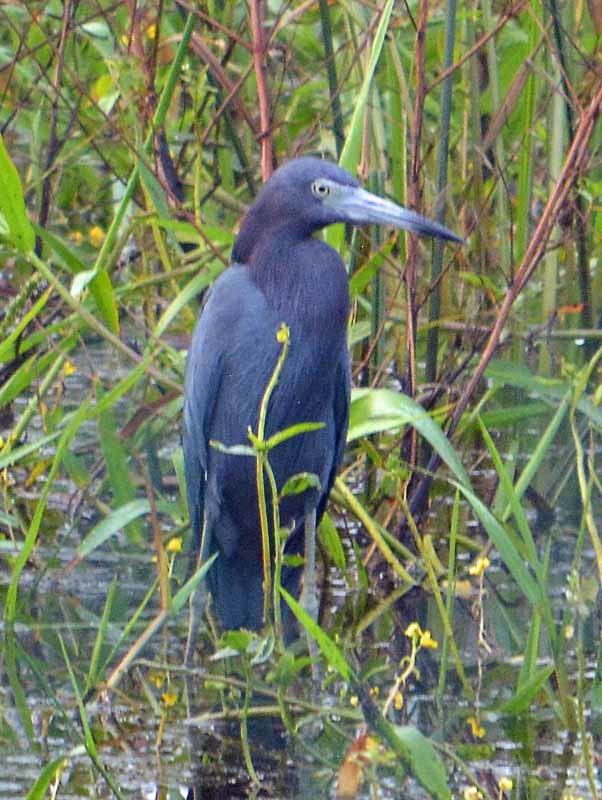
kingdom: Animalia
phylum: Chordata
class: Aves
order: Pelecaniformes
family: Ardeidae
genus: Egretta
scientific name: Egretta caerulea
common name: Little blue heron
